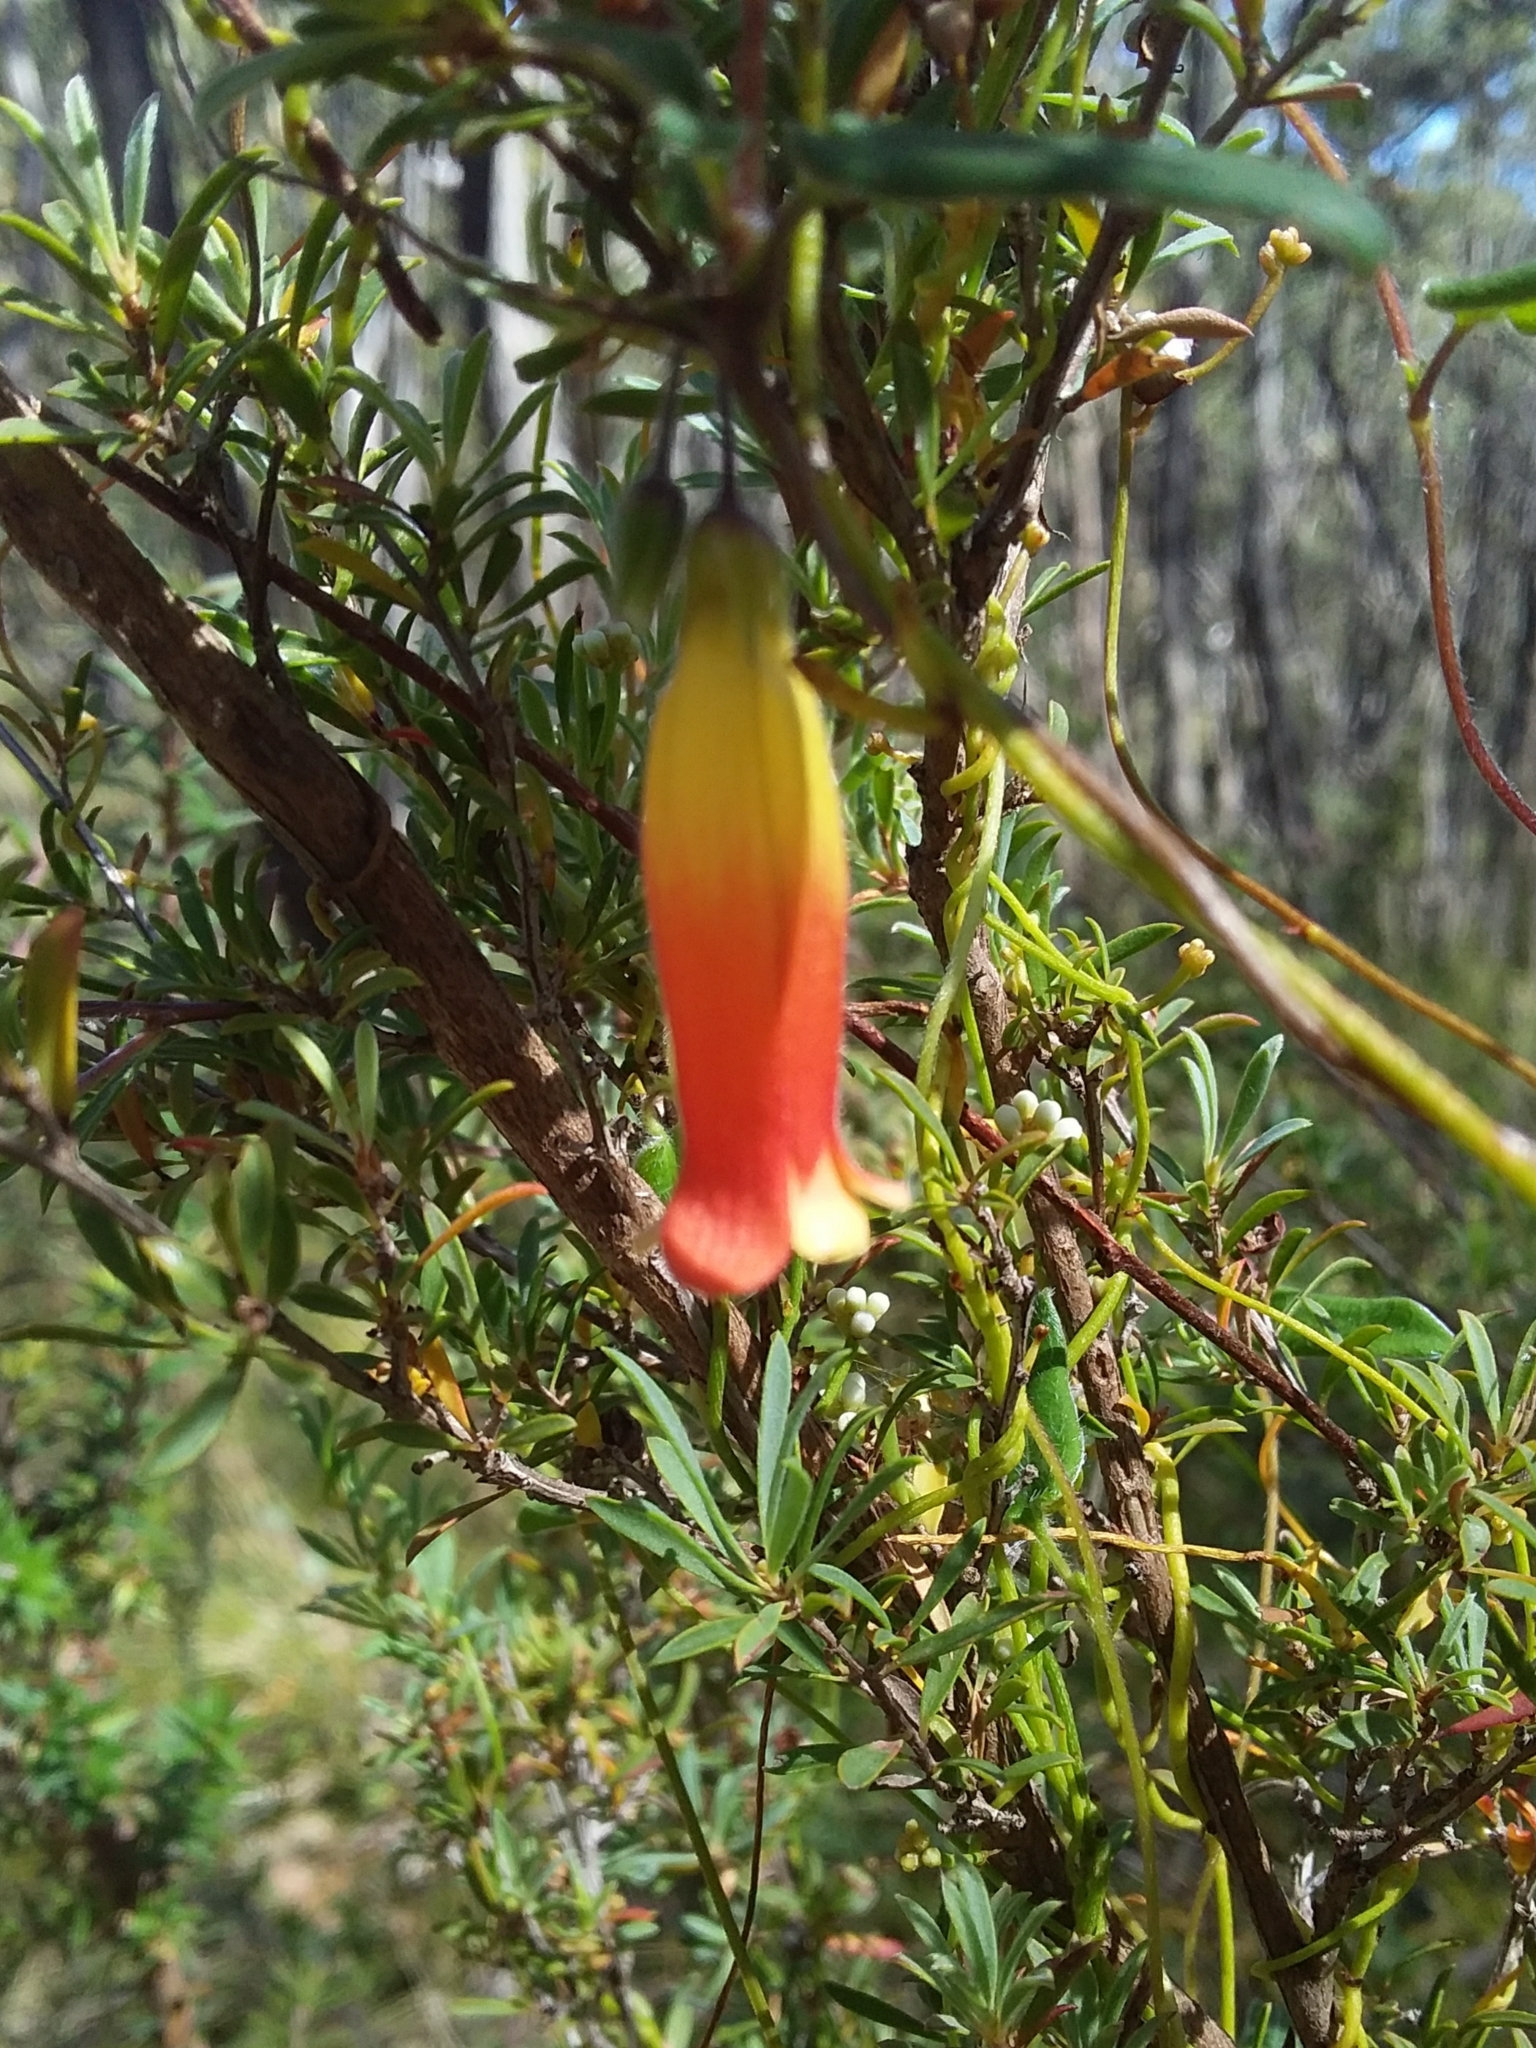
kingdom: Plantae
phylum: Tracheophyta
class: Magnoliopsida
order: Apiales
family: Pittosporaceae
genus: Marianthus
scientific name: Marianthus bignoniaceus
